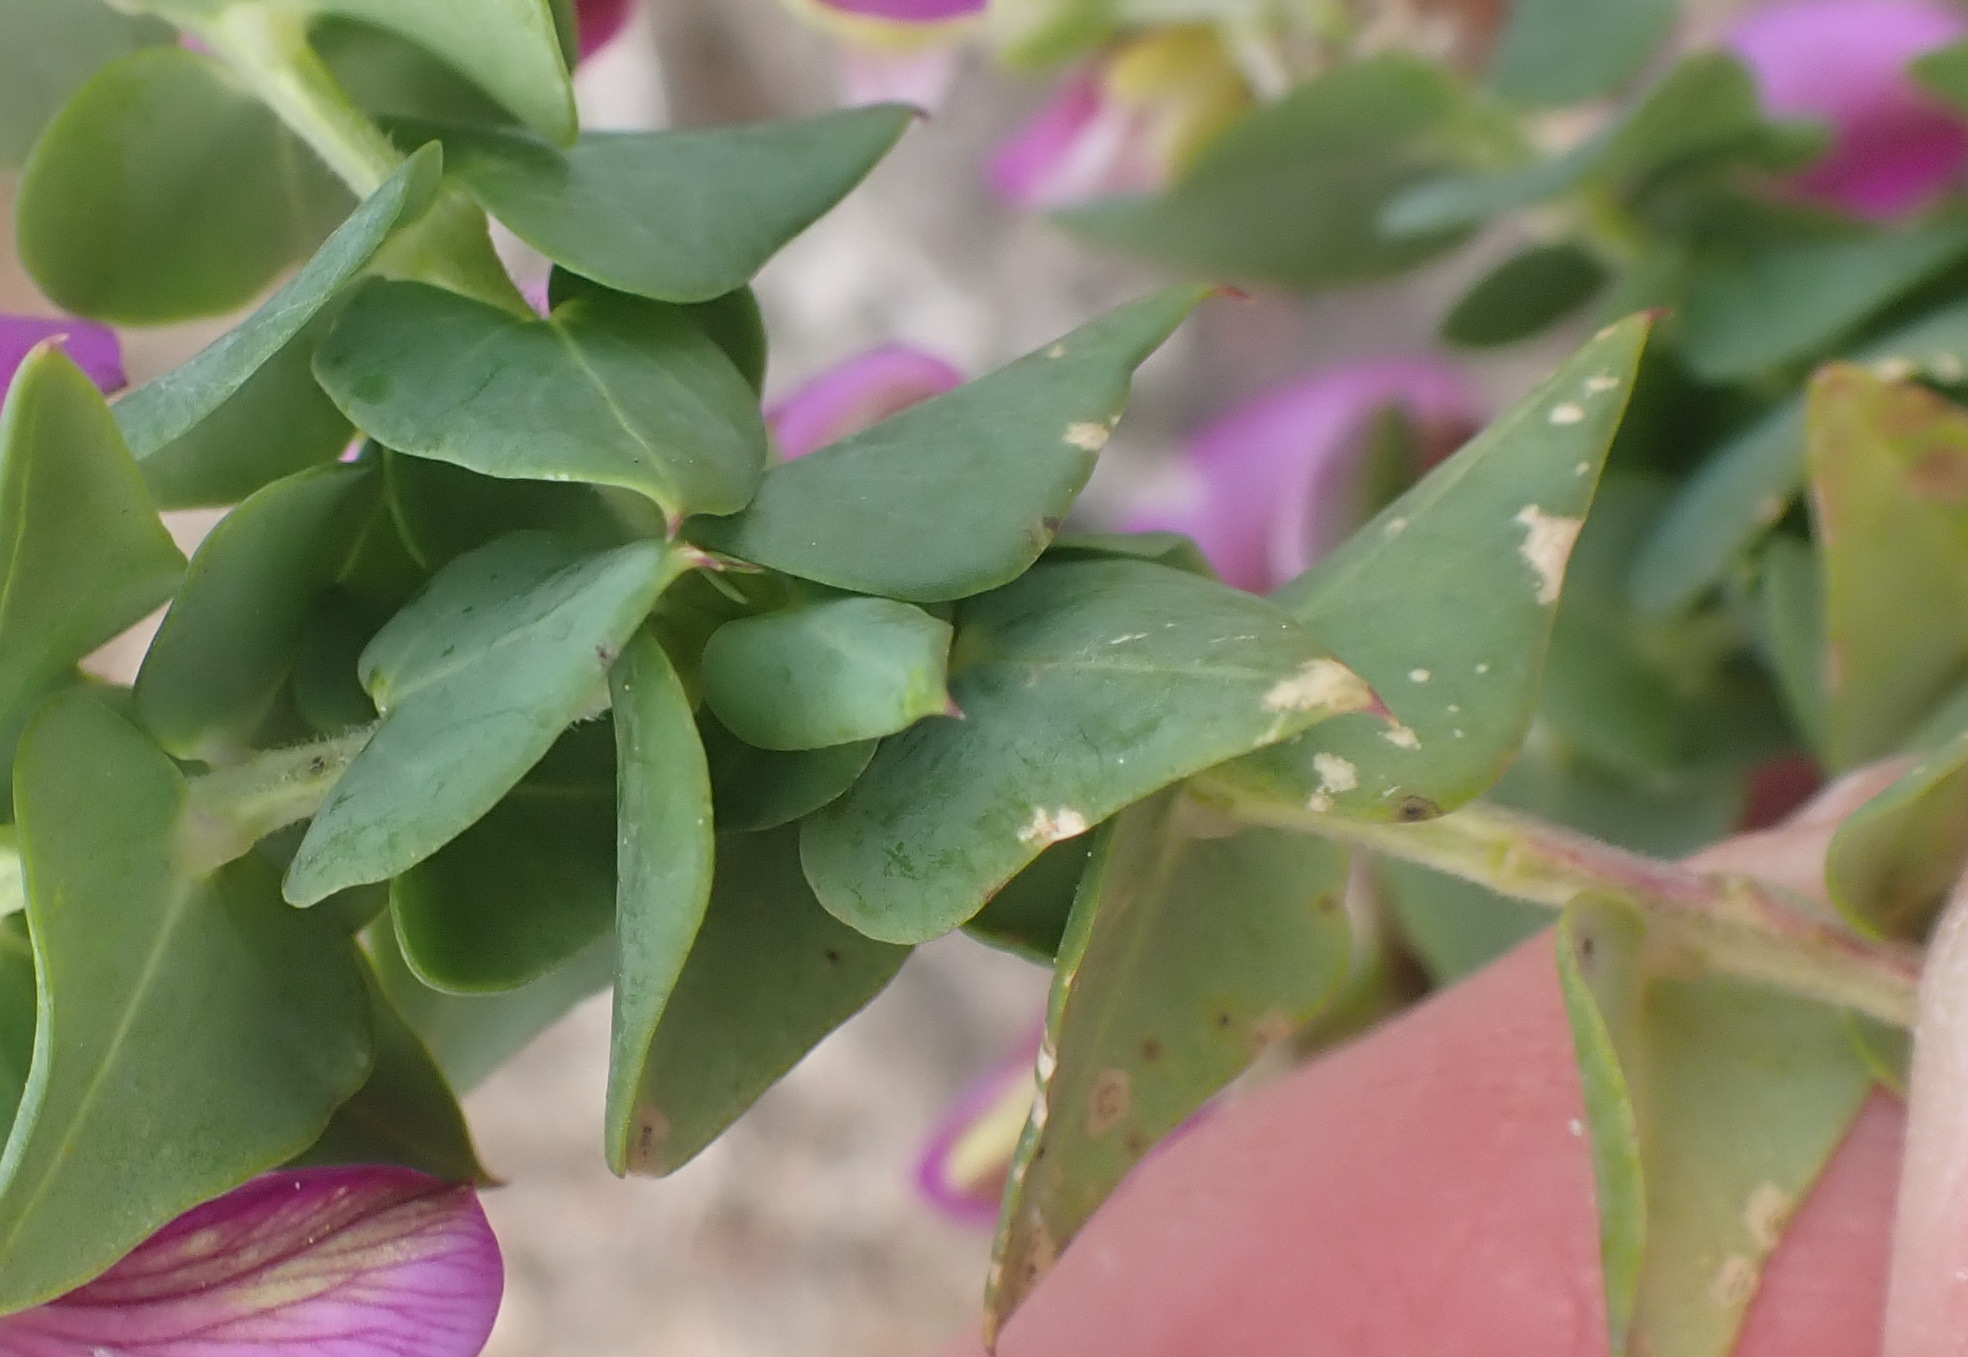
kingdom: Plantae
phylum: Tracheophyta
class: Magnoliopsida
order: Fabales
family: Polygalaceae
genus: Polygala
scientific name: Polygala fruticosa
